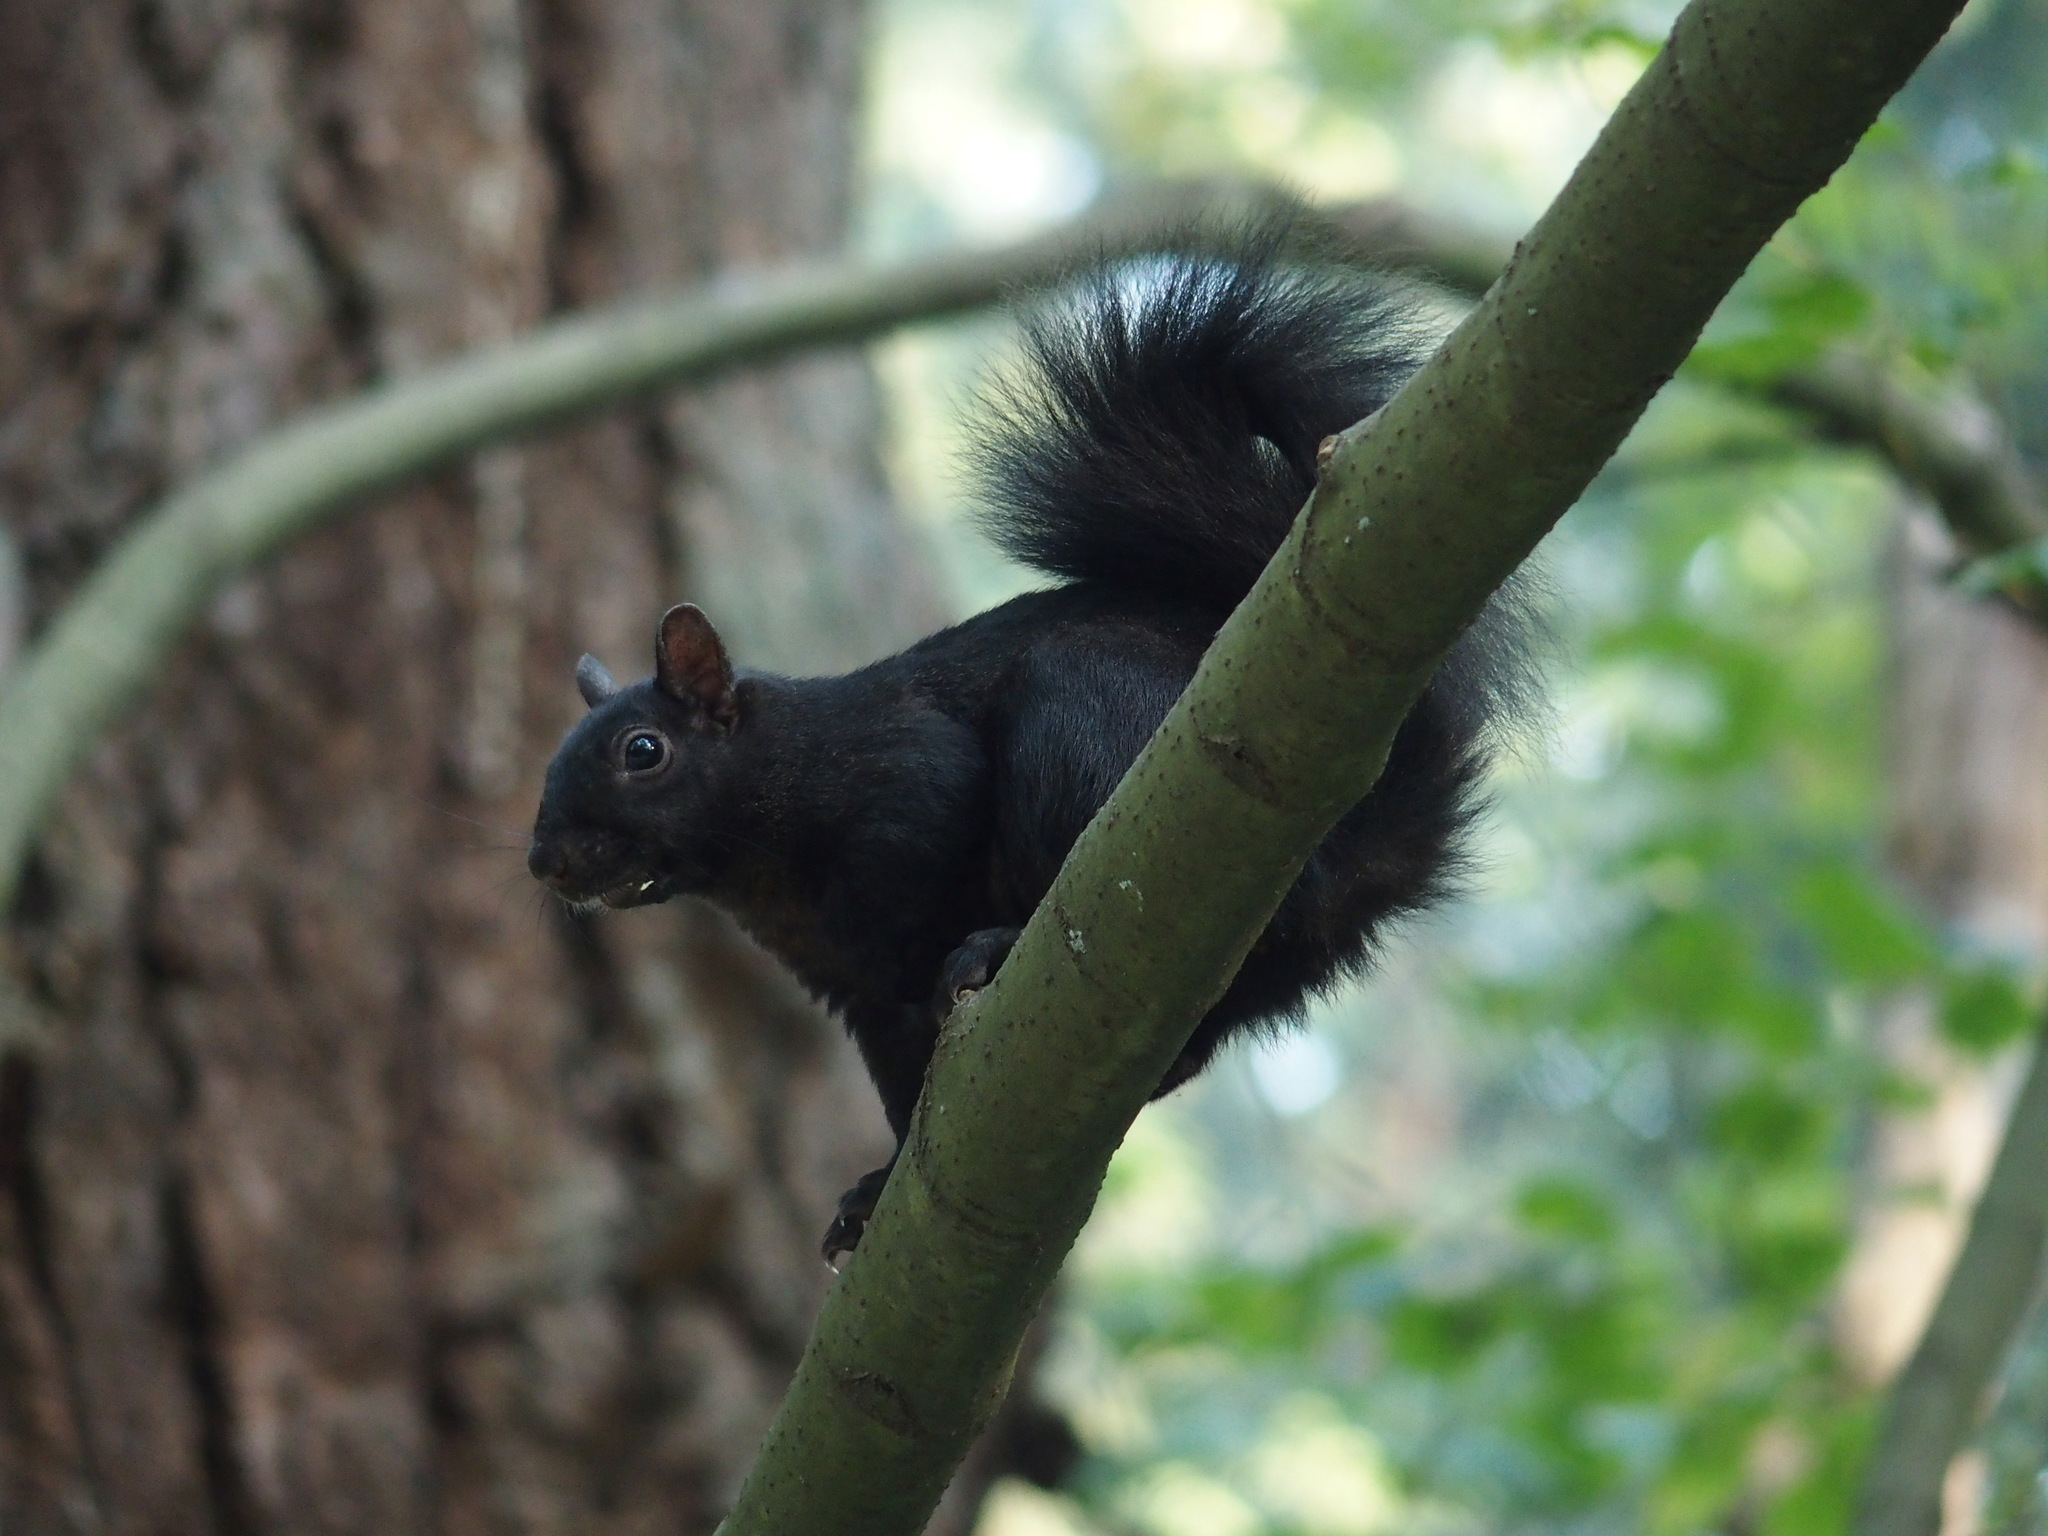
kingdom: Animalia
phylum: Chordata
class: Mammalia
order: Rodentia
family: Sciuridae
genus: Sciurus
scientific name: Sciurus carolinensis
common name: Eastern gray squirrel
